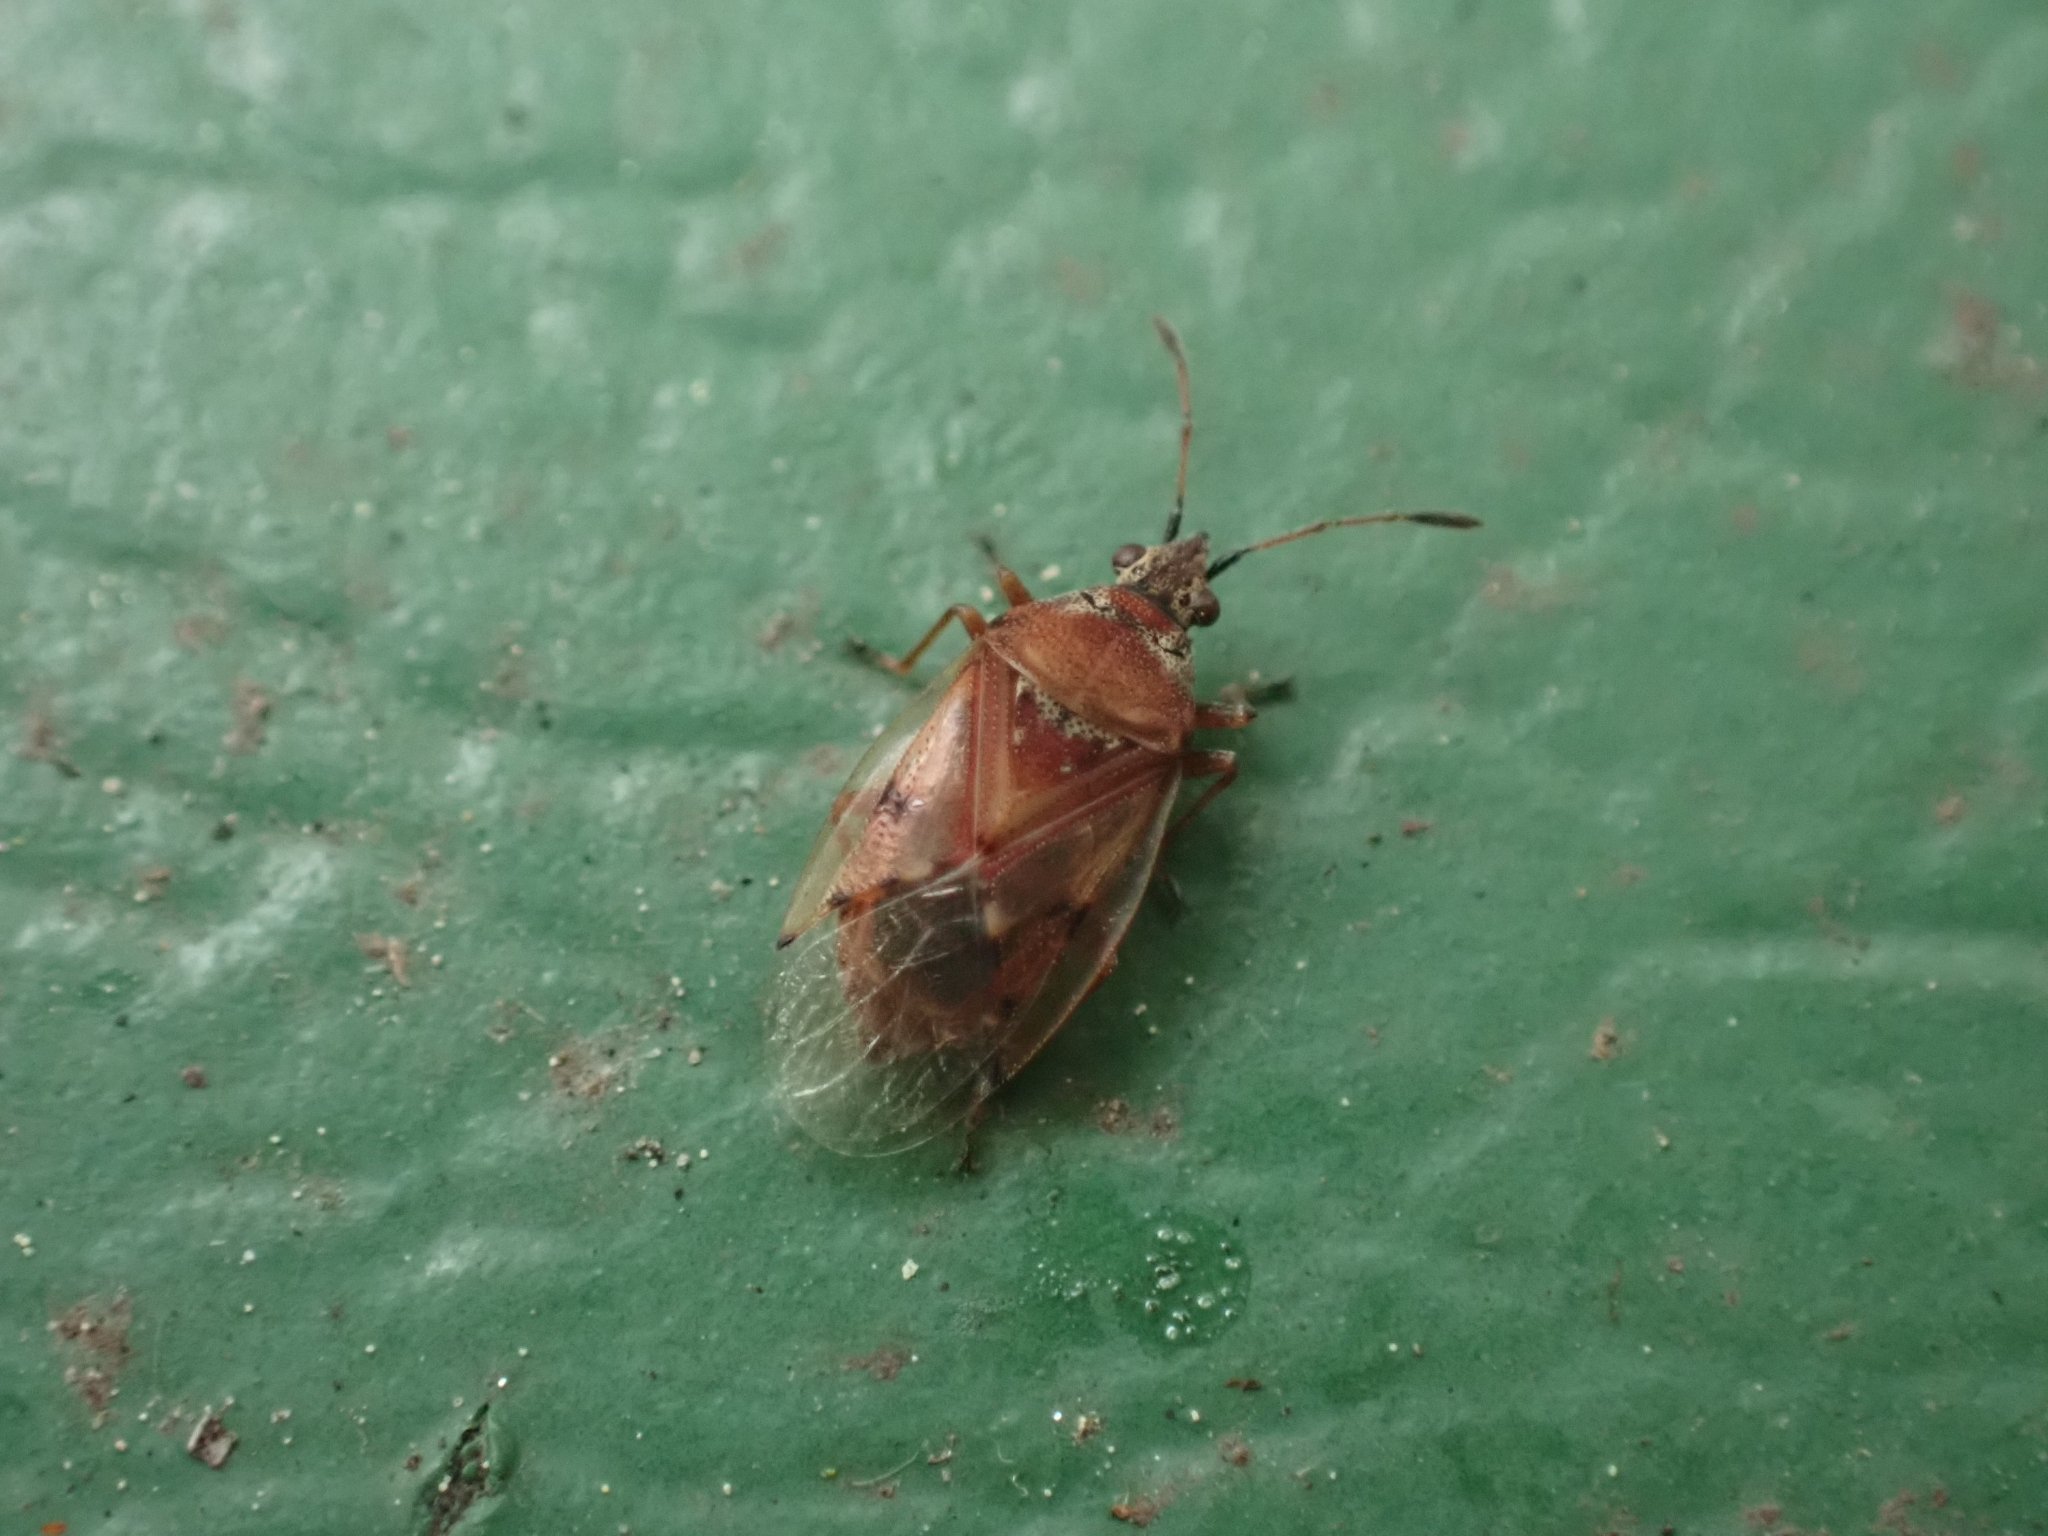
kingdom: Animalia
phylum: Arthropoda
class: Insecta
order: Hemiptera
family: Lygaeidae
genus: Kleidocerys
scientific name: Kleidocerys resedae
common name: Birch catkin bug
